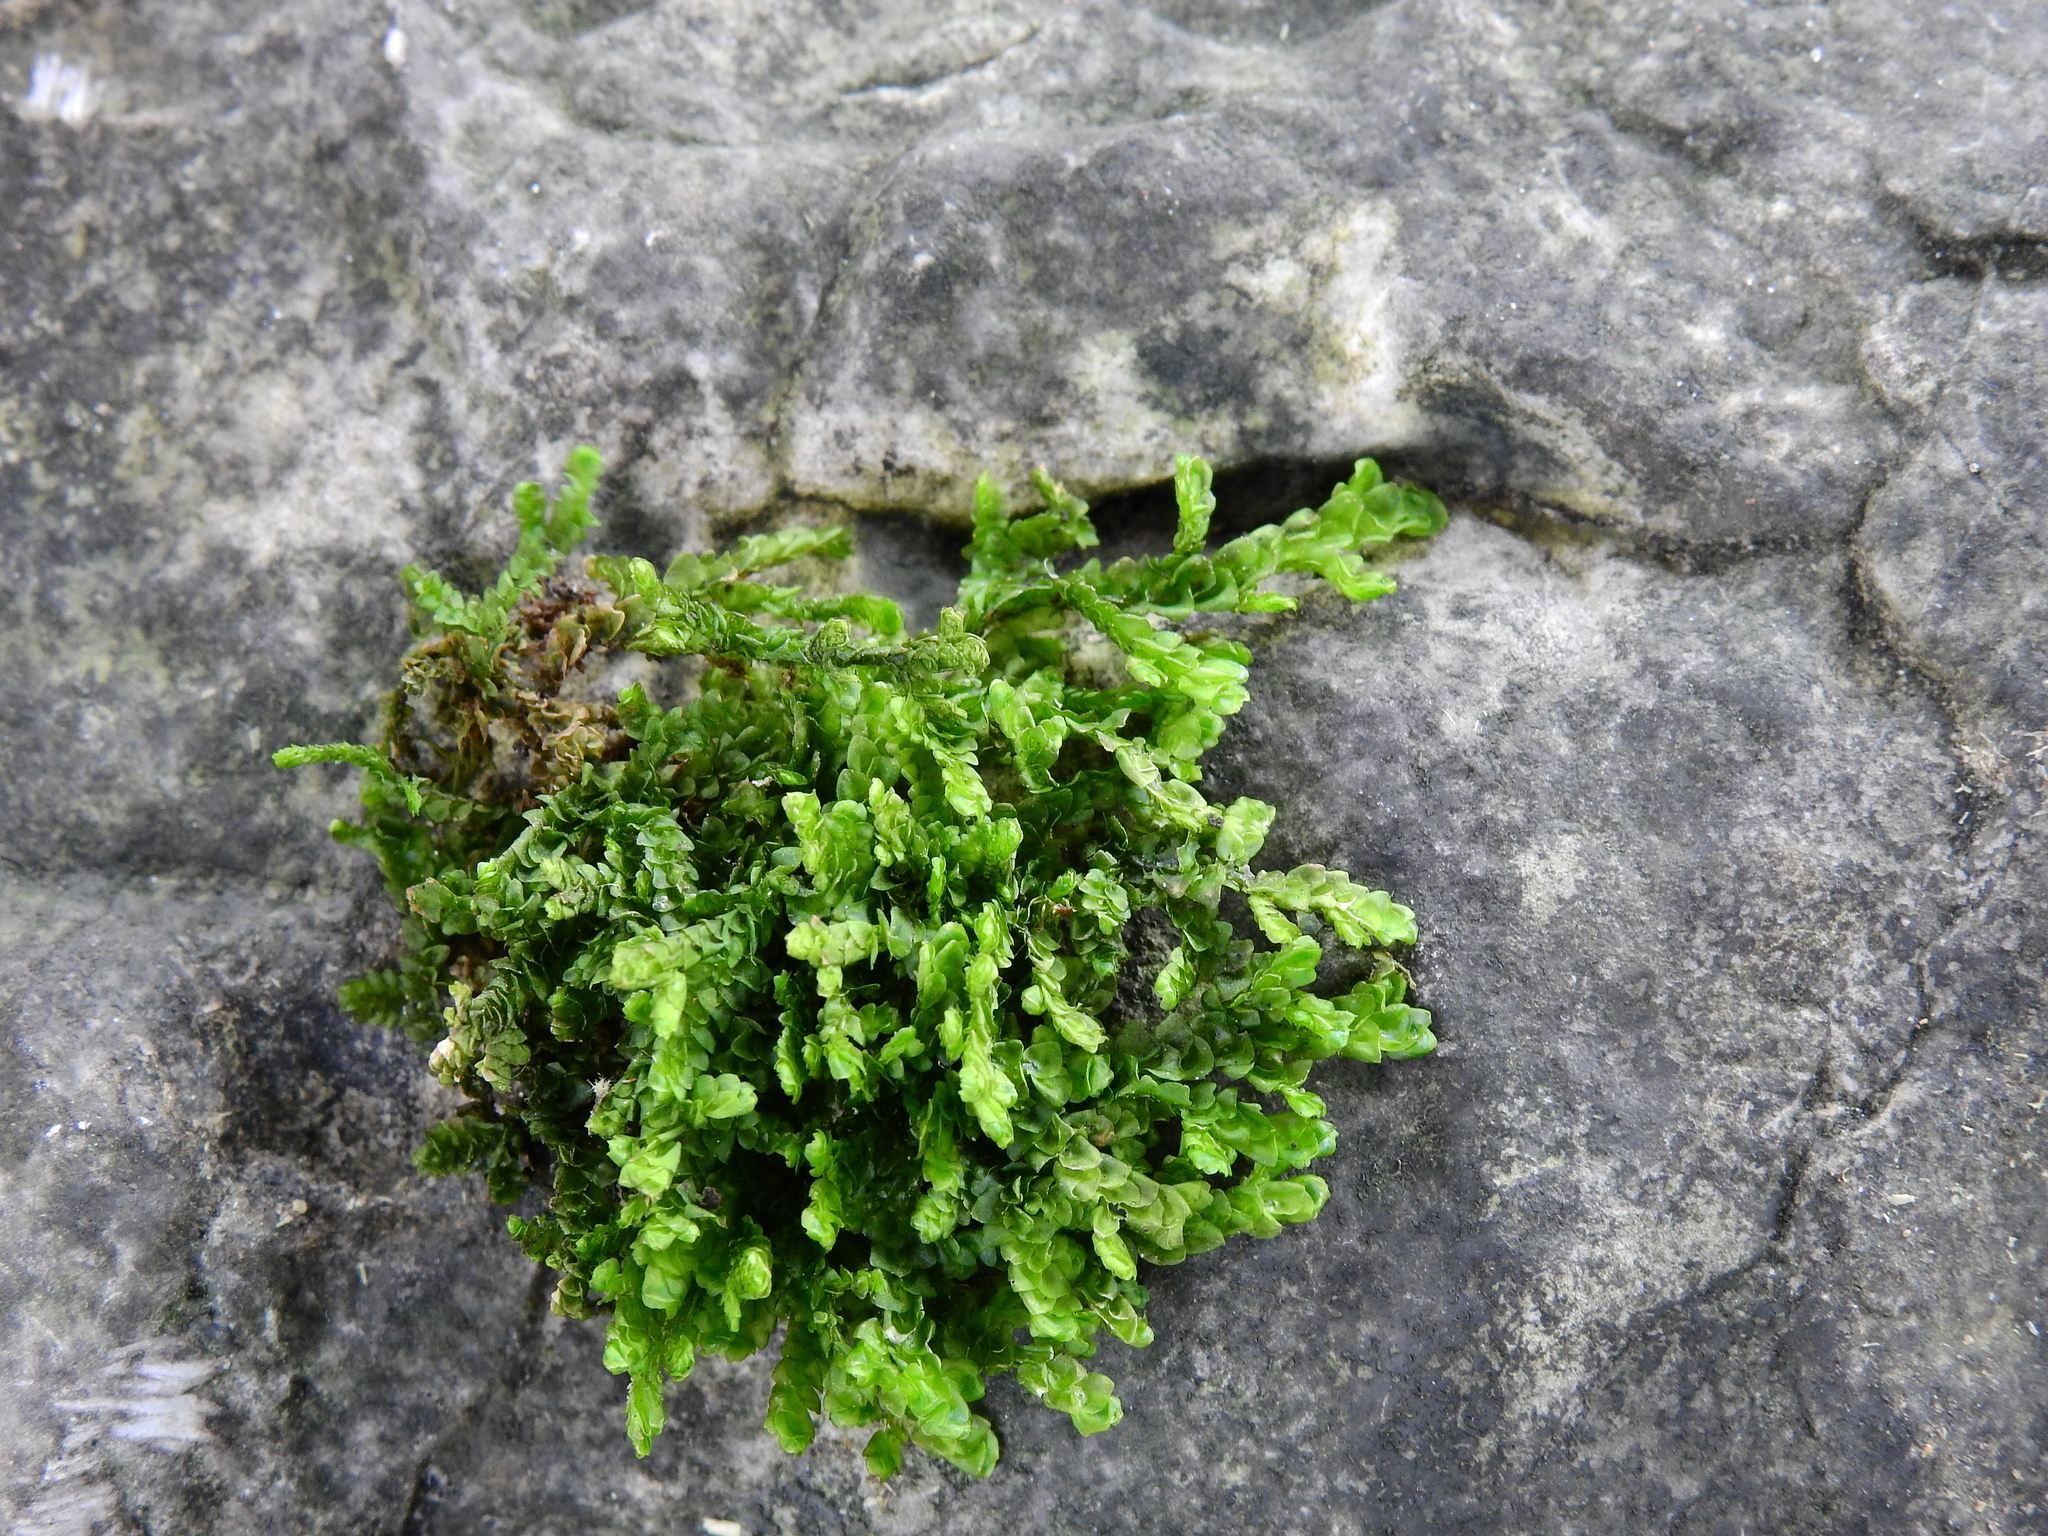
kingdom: Plantae
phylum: Marchantiophyta
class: Jungermanniopsida
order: Porellales
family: Porellaceae
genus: Porella
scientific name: Porella platyphylla
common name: Wall scalewort
